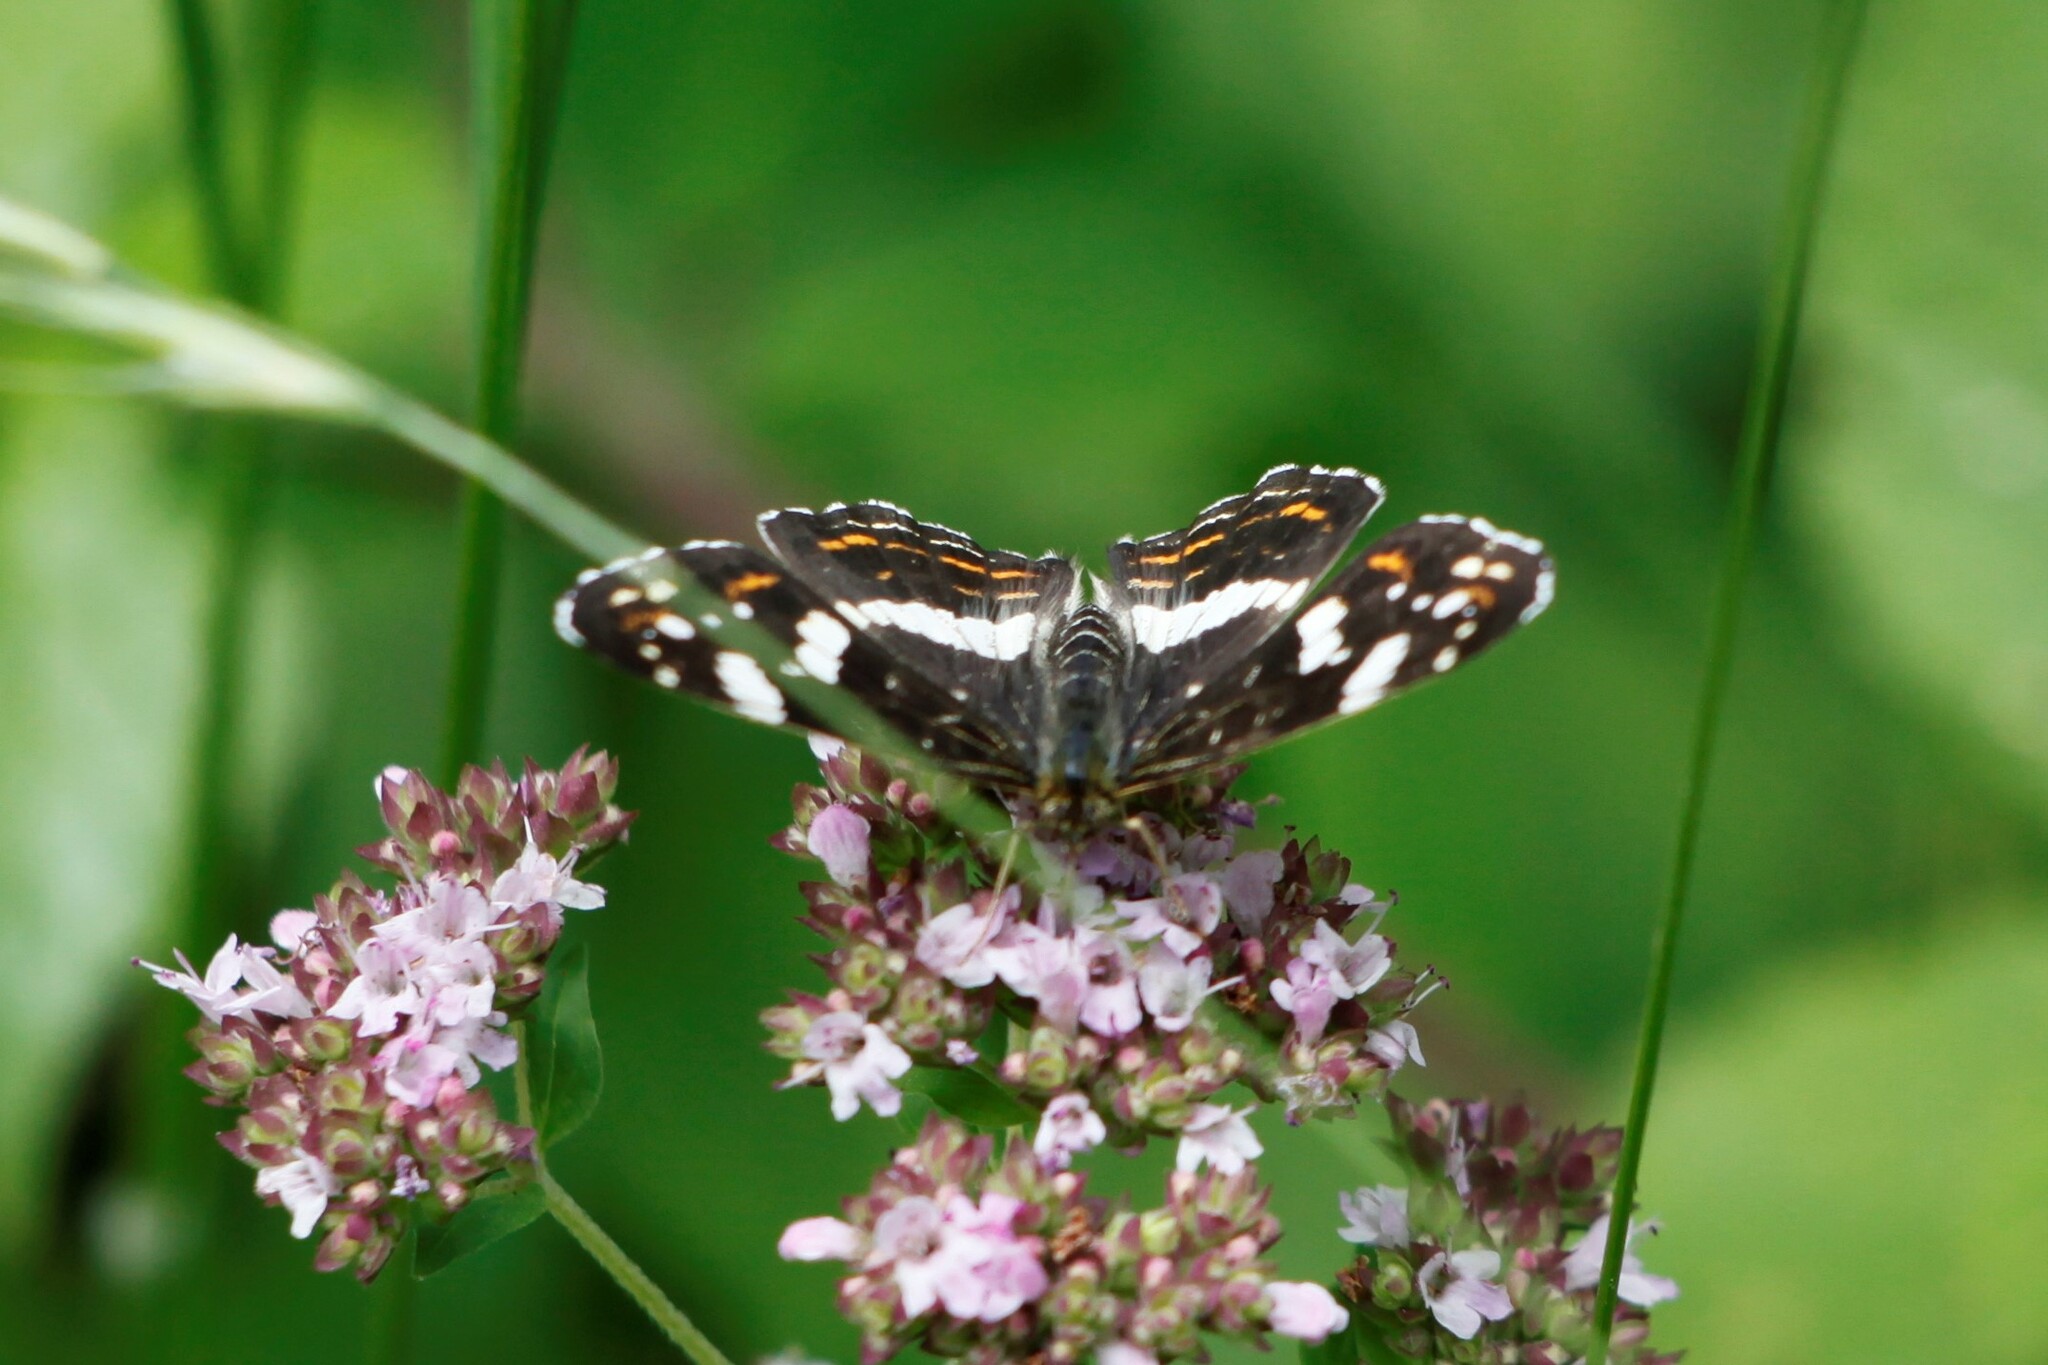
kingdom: Animalia
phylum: Arthropoda
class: Insecta
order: Lepidoptera
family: Nymphalidae
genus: Araschnia
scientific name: Araschnia levana
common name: Map butterfly
